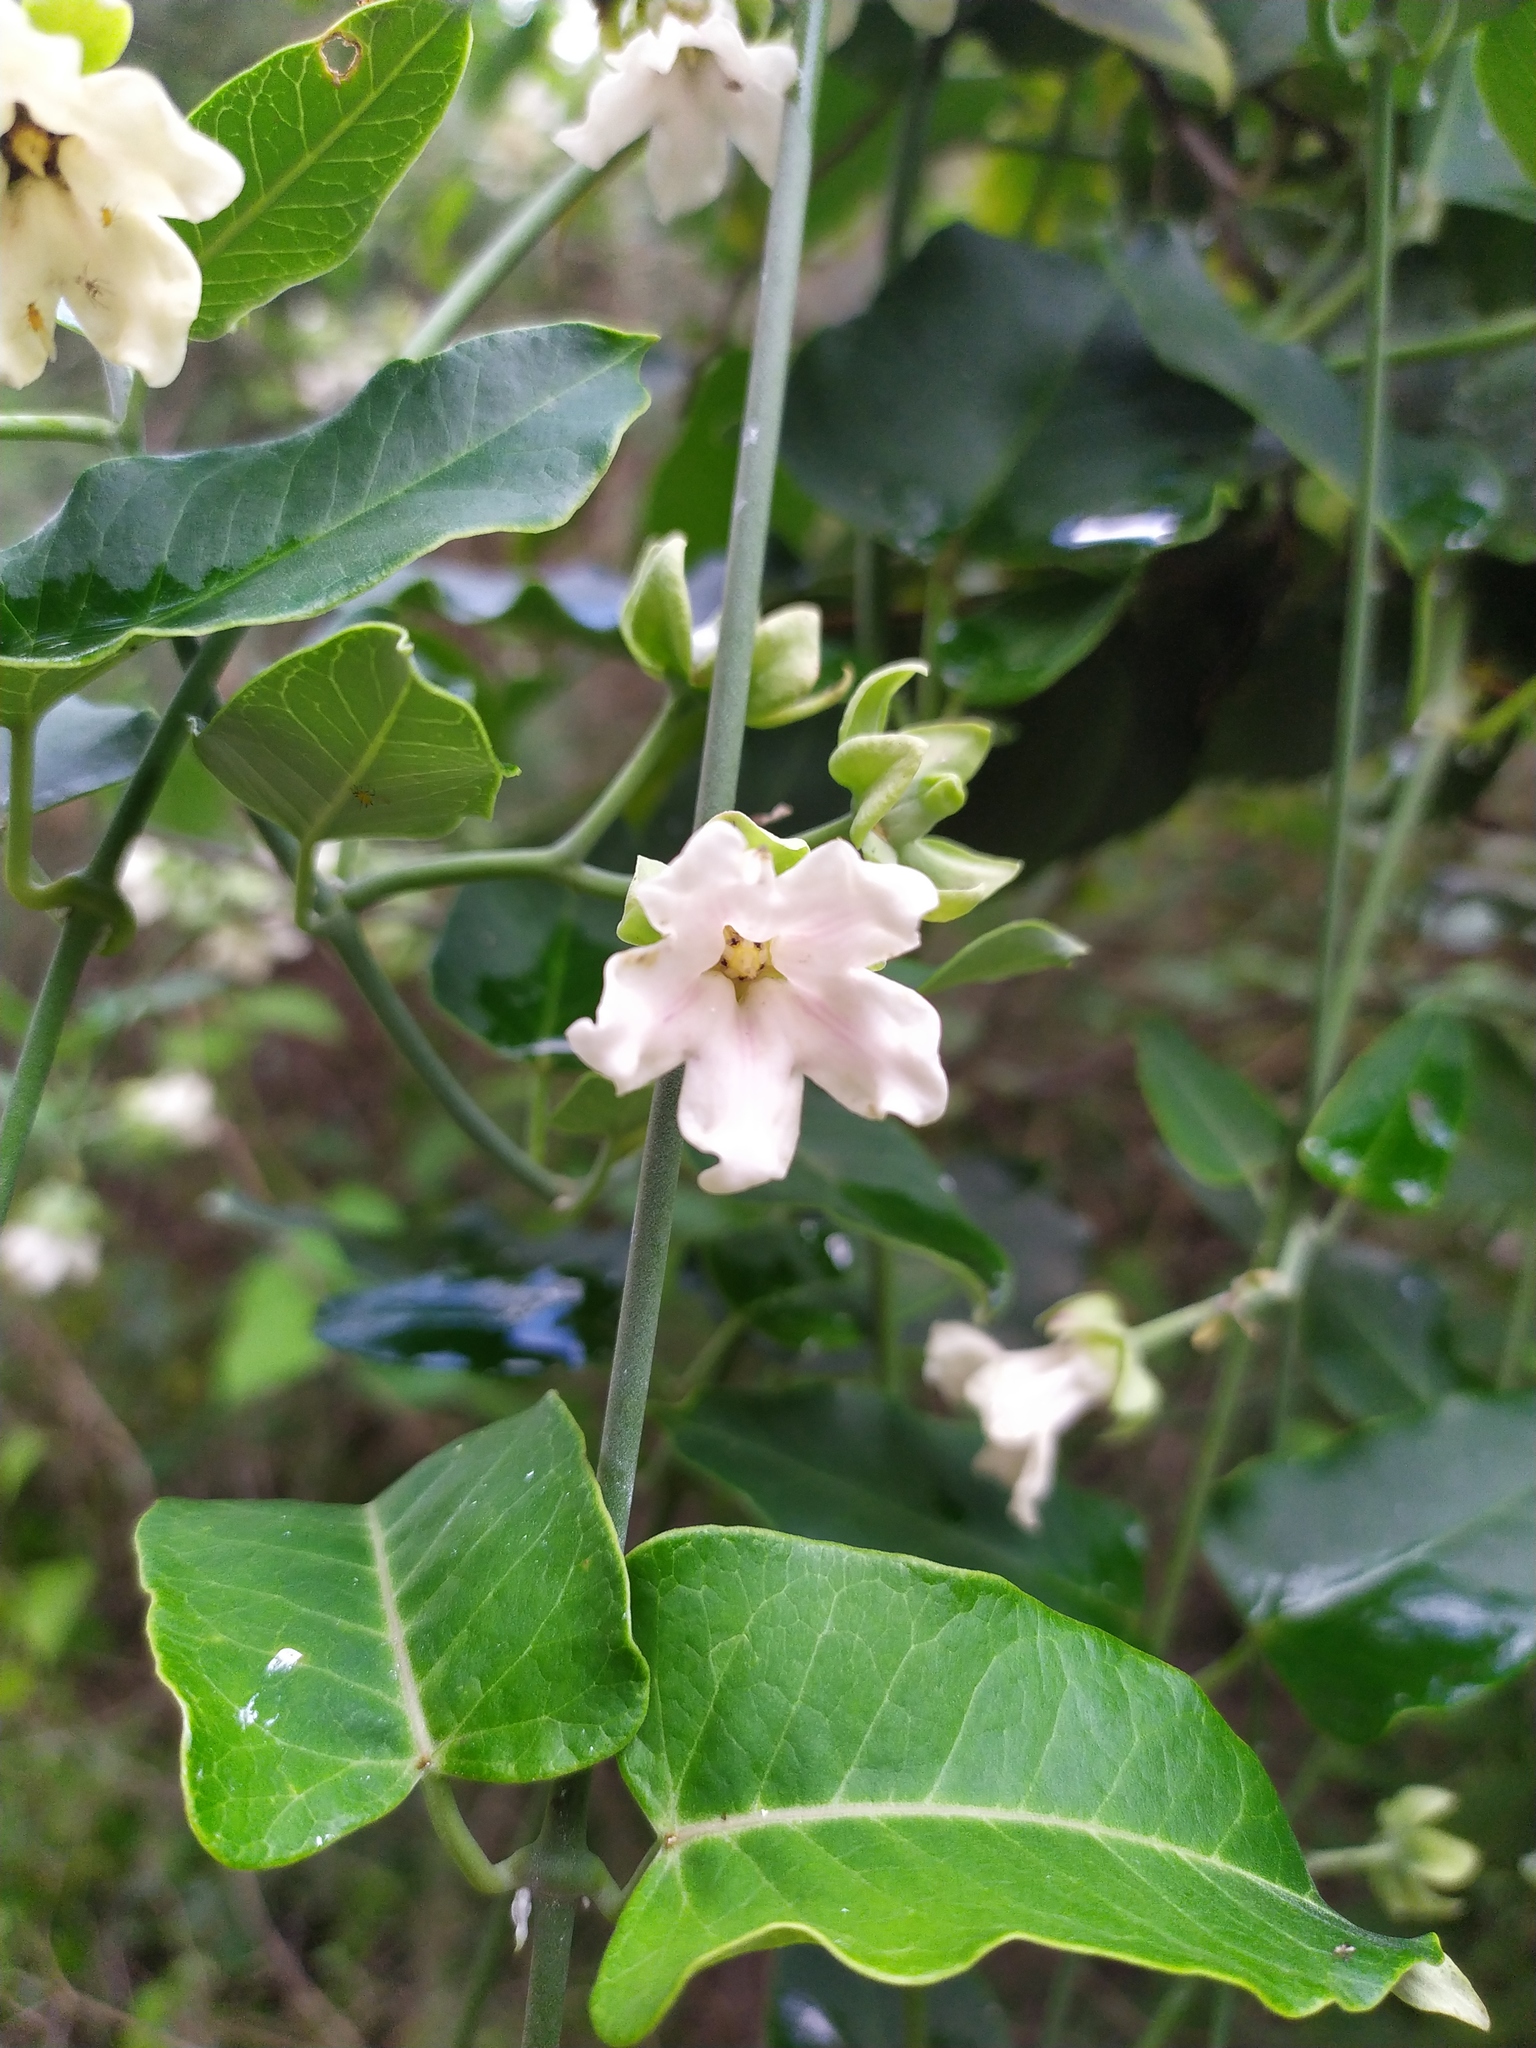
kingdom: Plantae
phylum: Tracheophyta
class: Magnoliopsida
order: Gentianales
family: Apocynaceae
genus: Araujia
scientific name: Araujia sericifera
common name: White bladderflower
